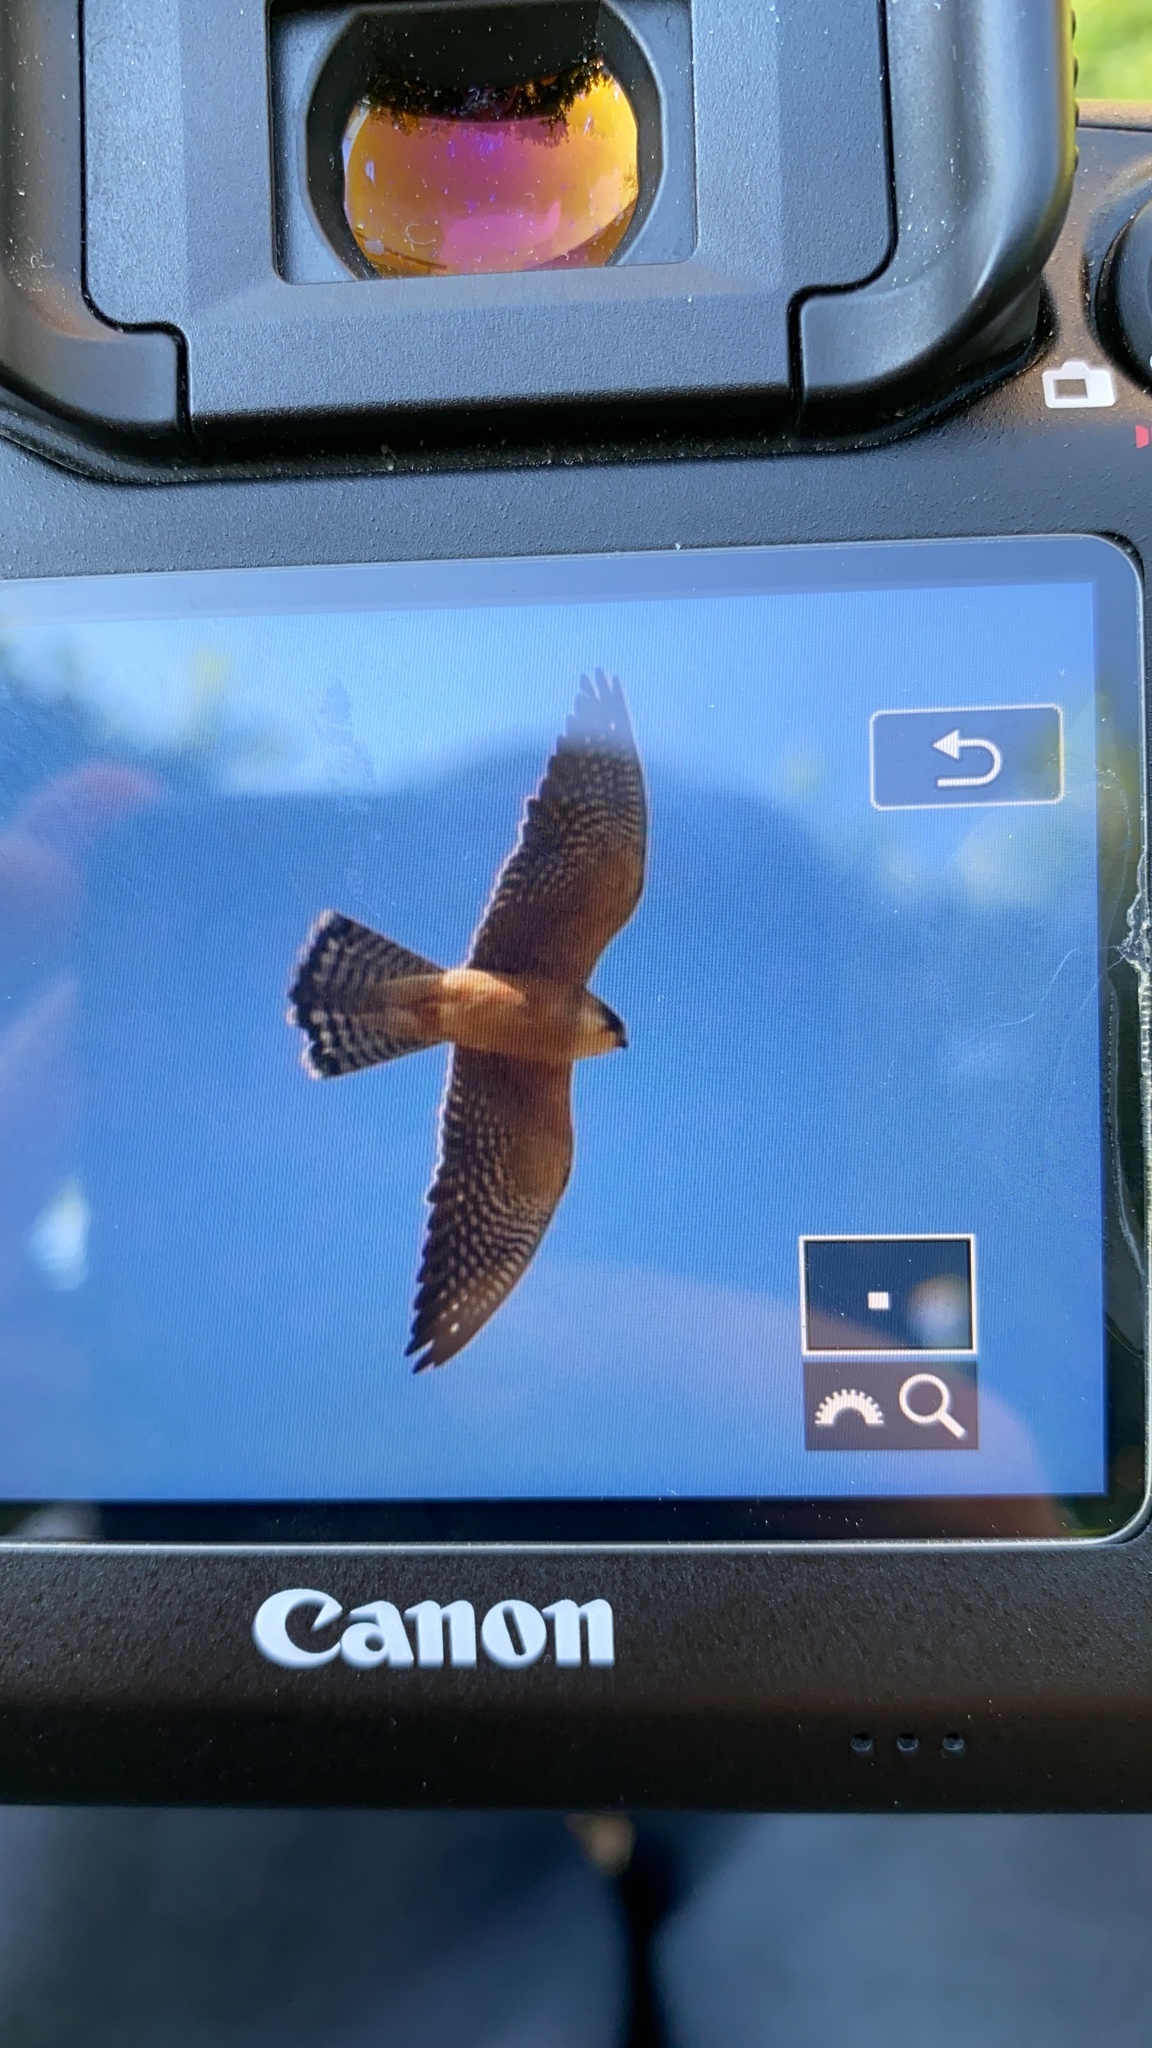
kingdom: Animalia
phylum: Chordata
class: Aves
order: Falconiformes
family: Falconidae
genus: Falco
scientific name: Falco vespertinus
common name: Red-footed falcon
